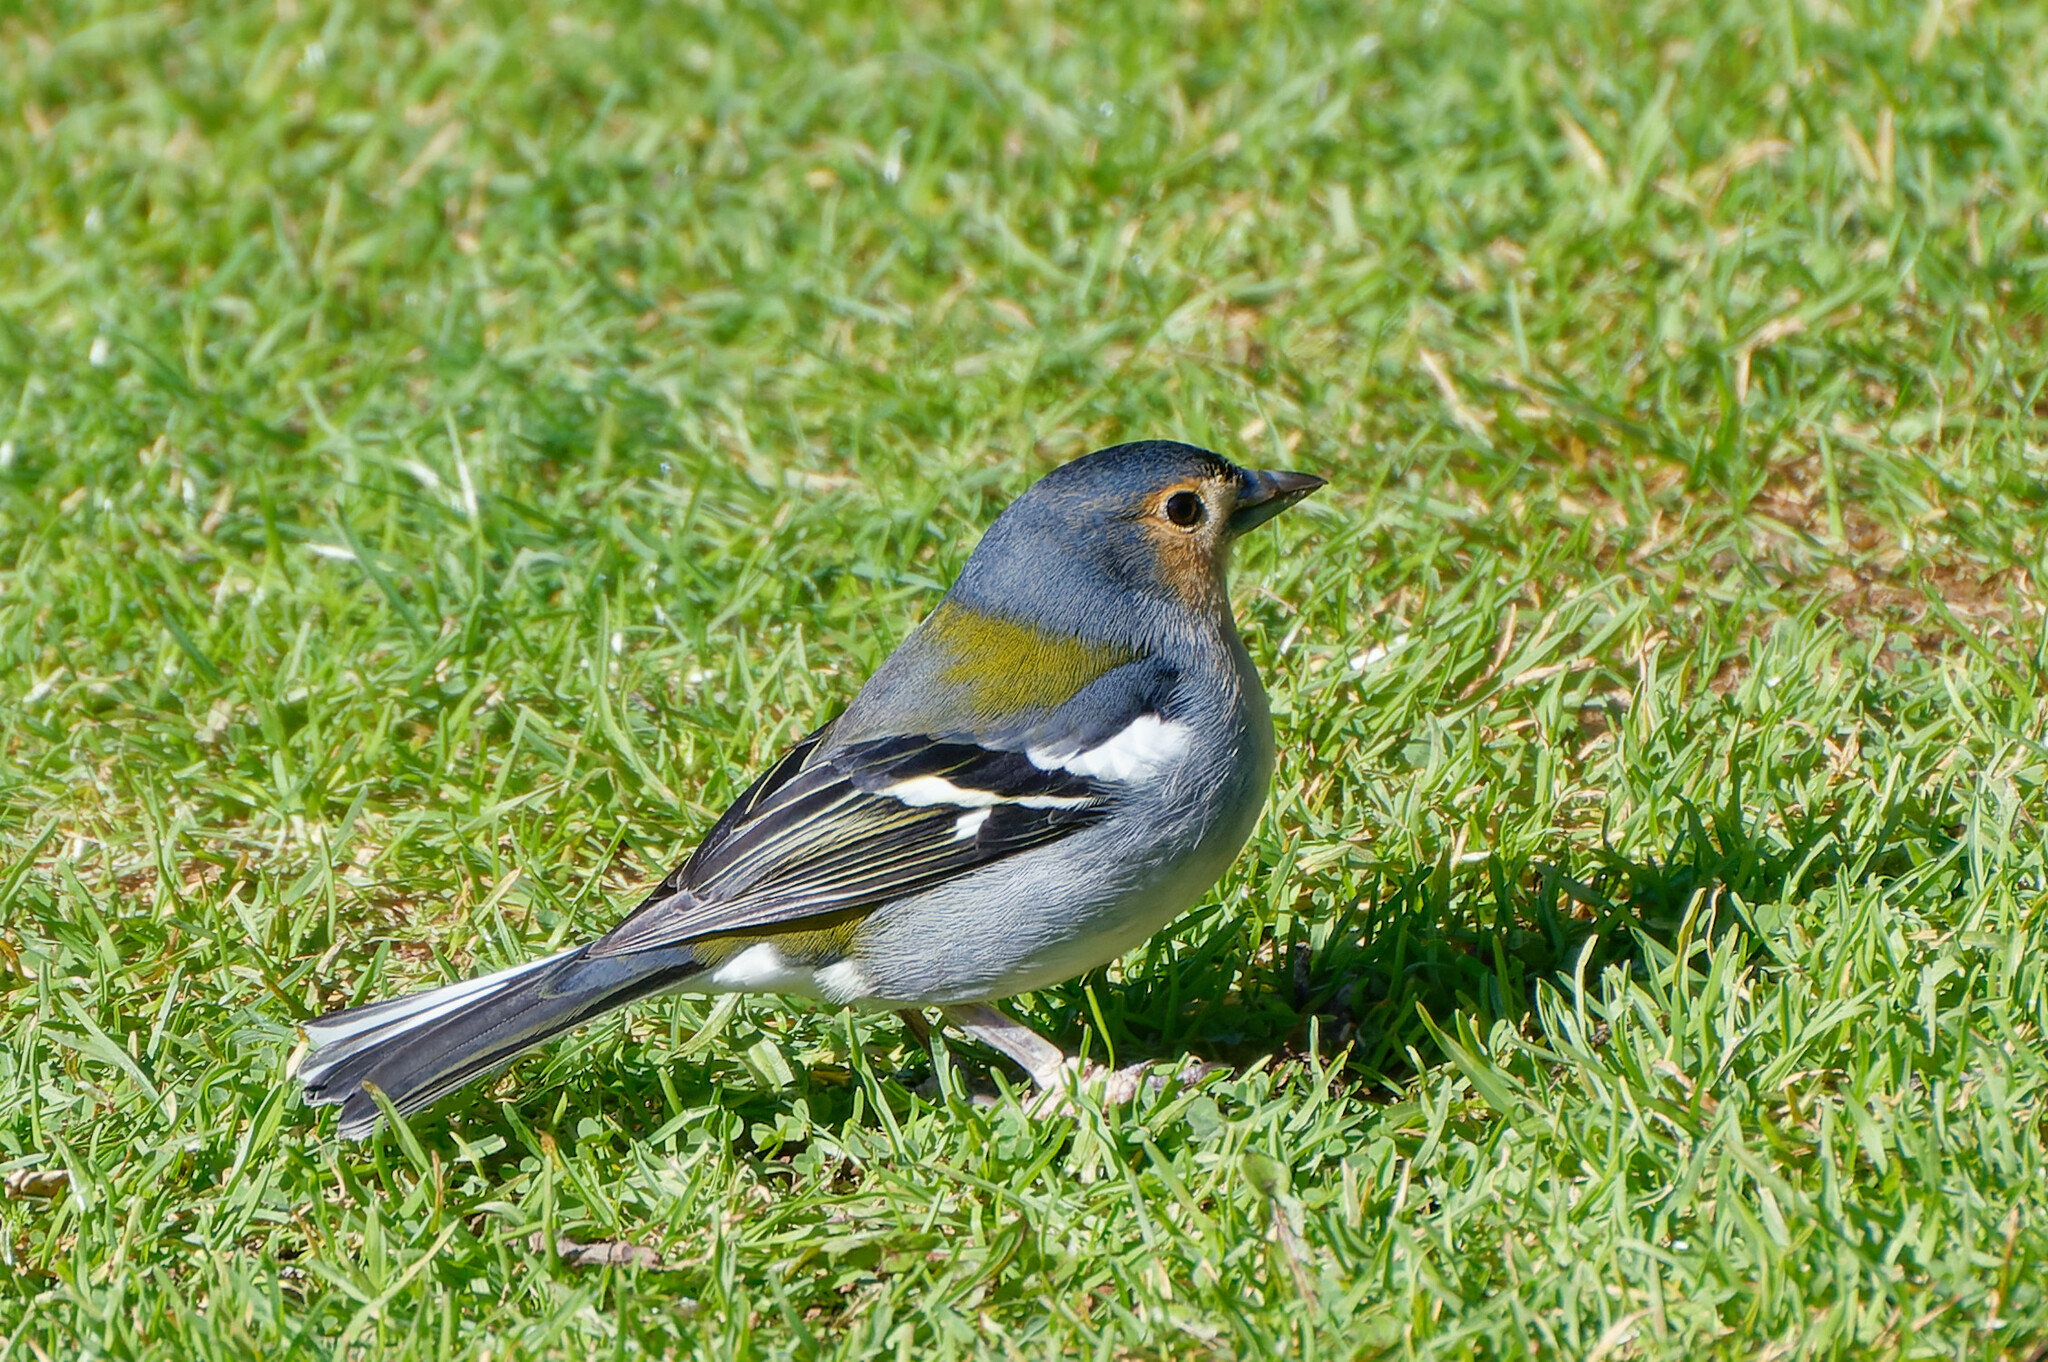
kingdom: Animalia
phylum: Chordata
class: Aves
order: Passeriformes
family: Fringillidae
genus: Fringilla
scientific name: Fringilla maderensis
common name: Madeira chaffinch
